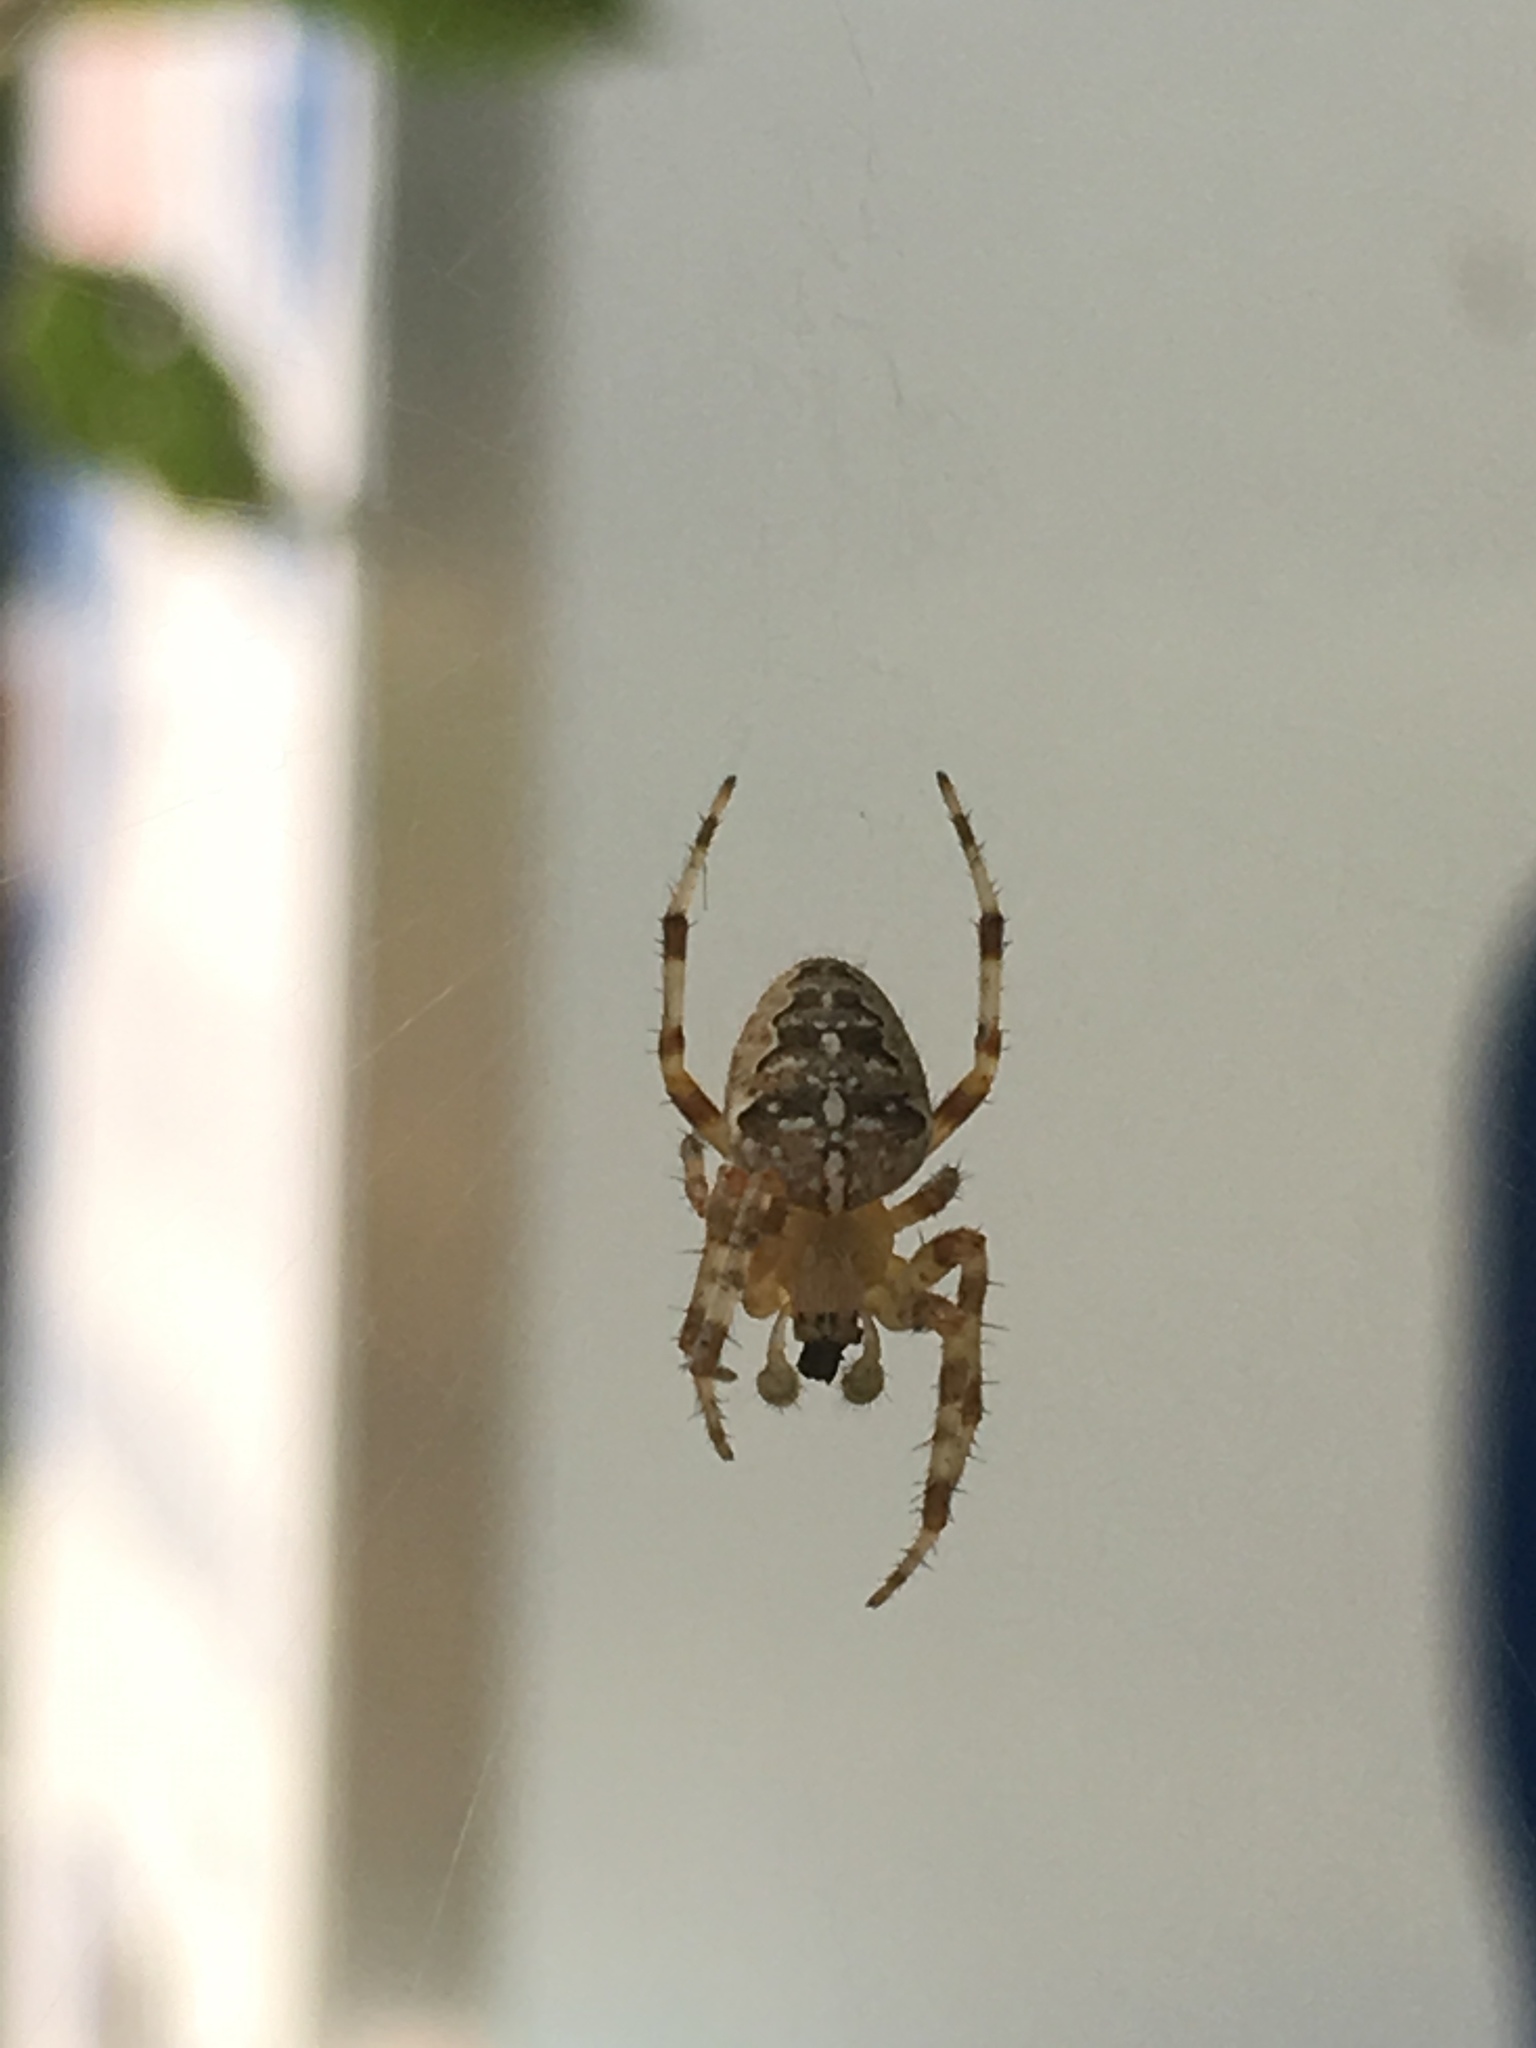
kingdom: Animalia
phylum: Arthropoda
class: Arachnida
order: Araneae
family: Araneidae
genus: Araneus
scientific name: Araneus diadematus
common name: Cross orbweaver
